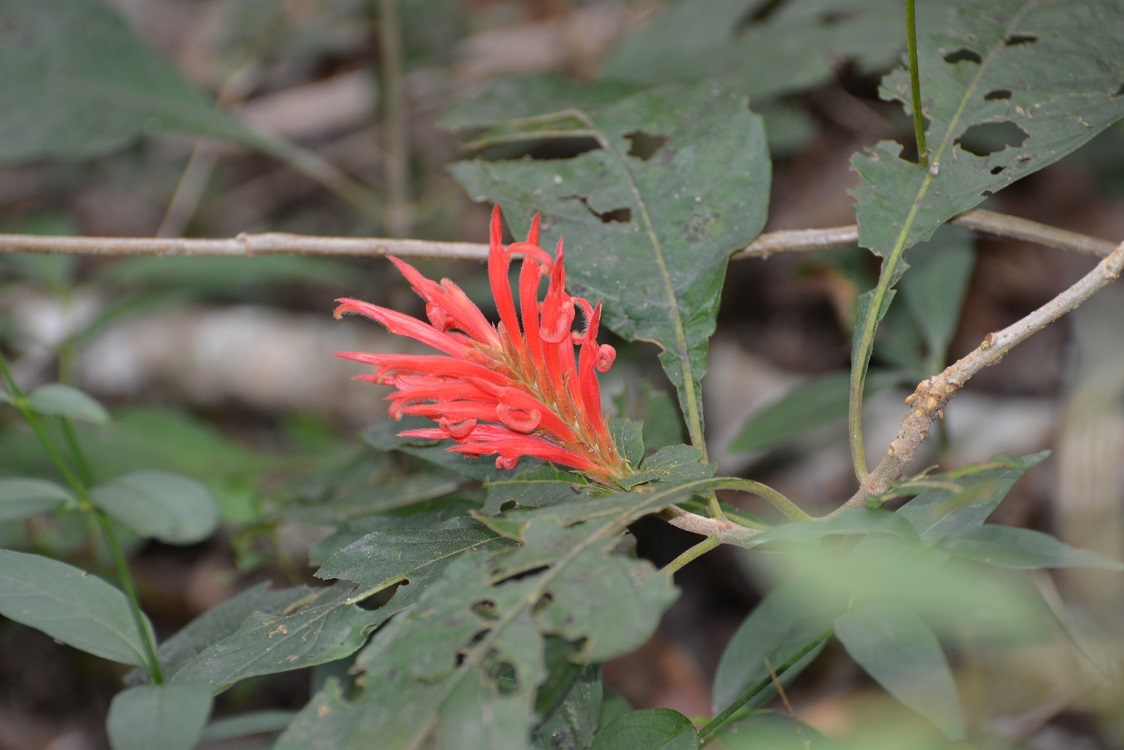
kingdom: Plantae
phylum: Tracheophyta
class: Magnoliopsida
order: Lamiales
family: Acanthaceae
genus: Aphelandra
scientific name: Aphelandra scabra
